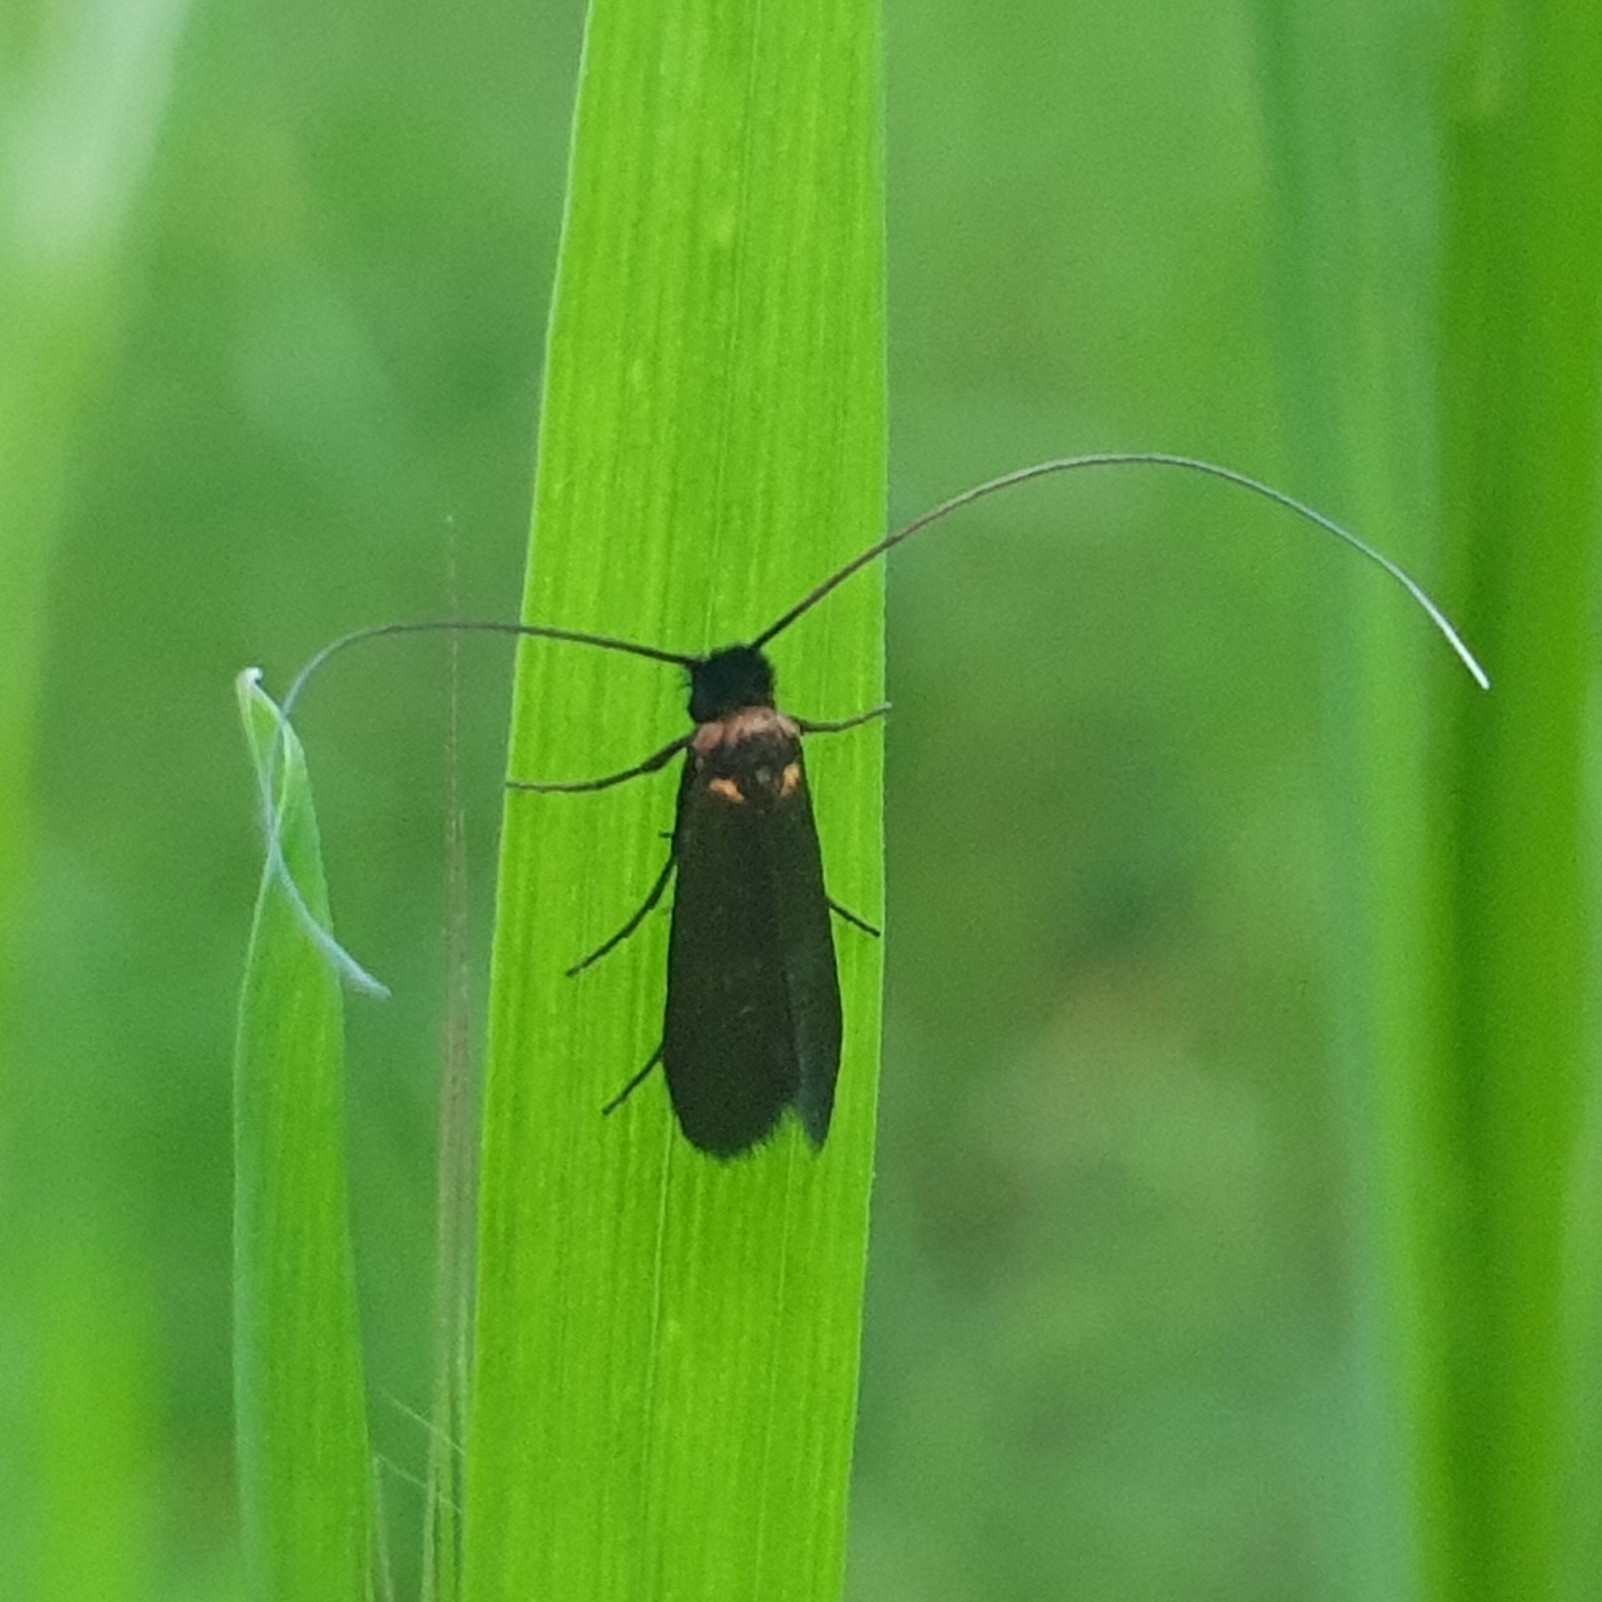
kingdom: Animalia
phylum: Arthropoda
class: Insecta
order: Lepidoptera
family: Adelidae
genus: Cauchas
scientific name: Cauchas rufimitrella
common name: Meadow long-horn
